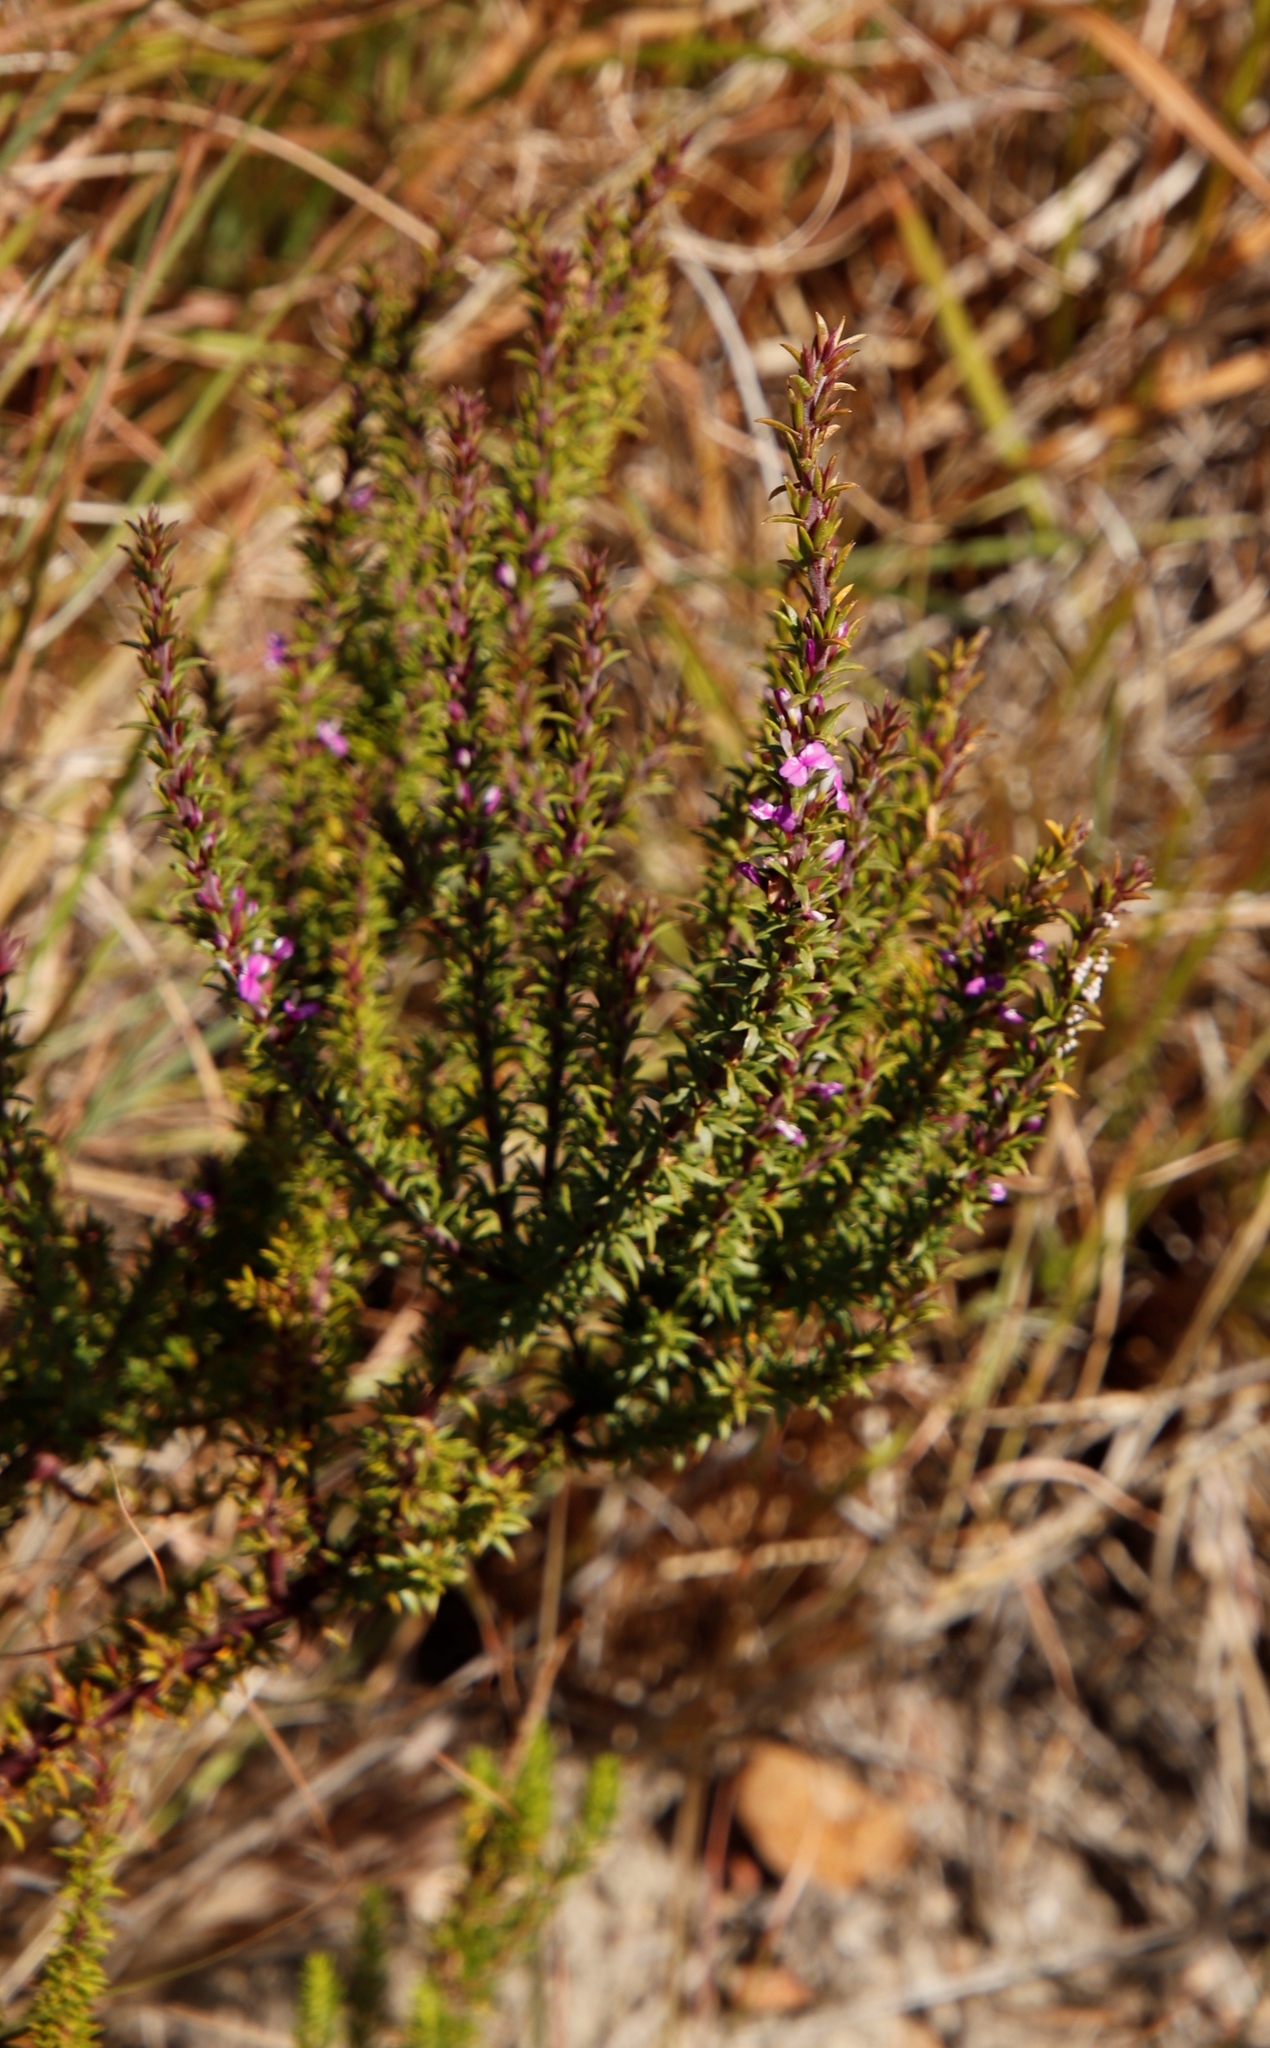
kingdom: Plantae
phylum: Tracheophyta
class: Magnoliopsida
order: Fabales
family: Polygalaceae
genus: Muraltia
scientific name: Muraltia heisteria
